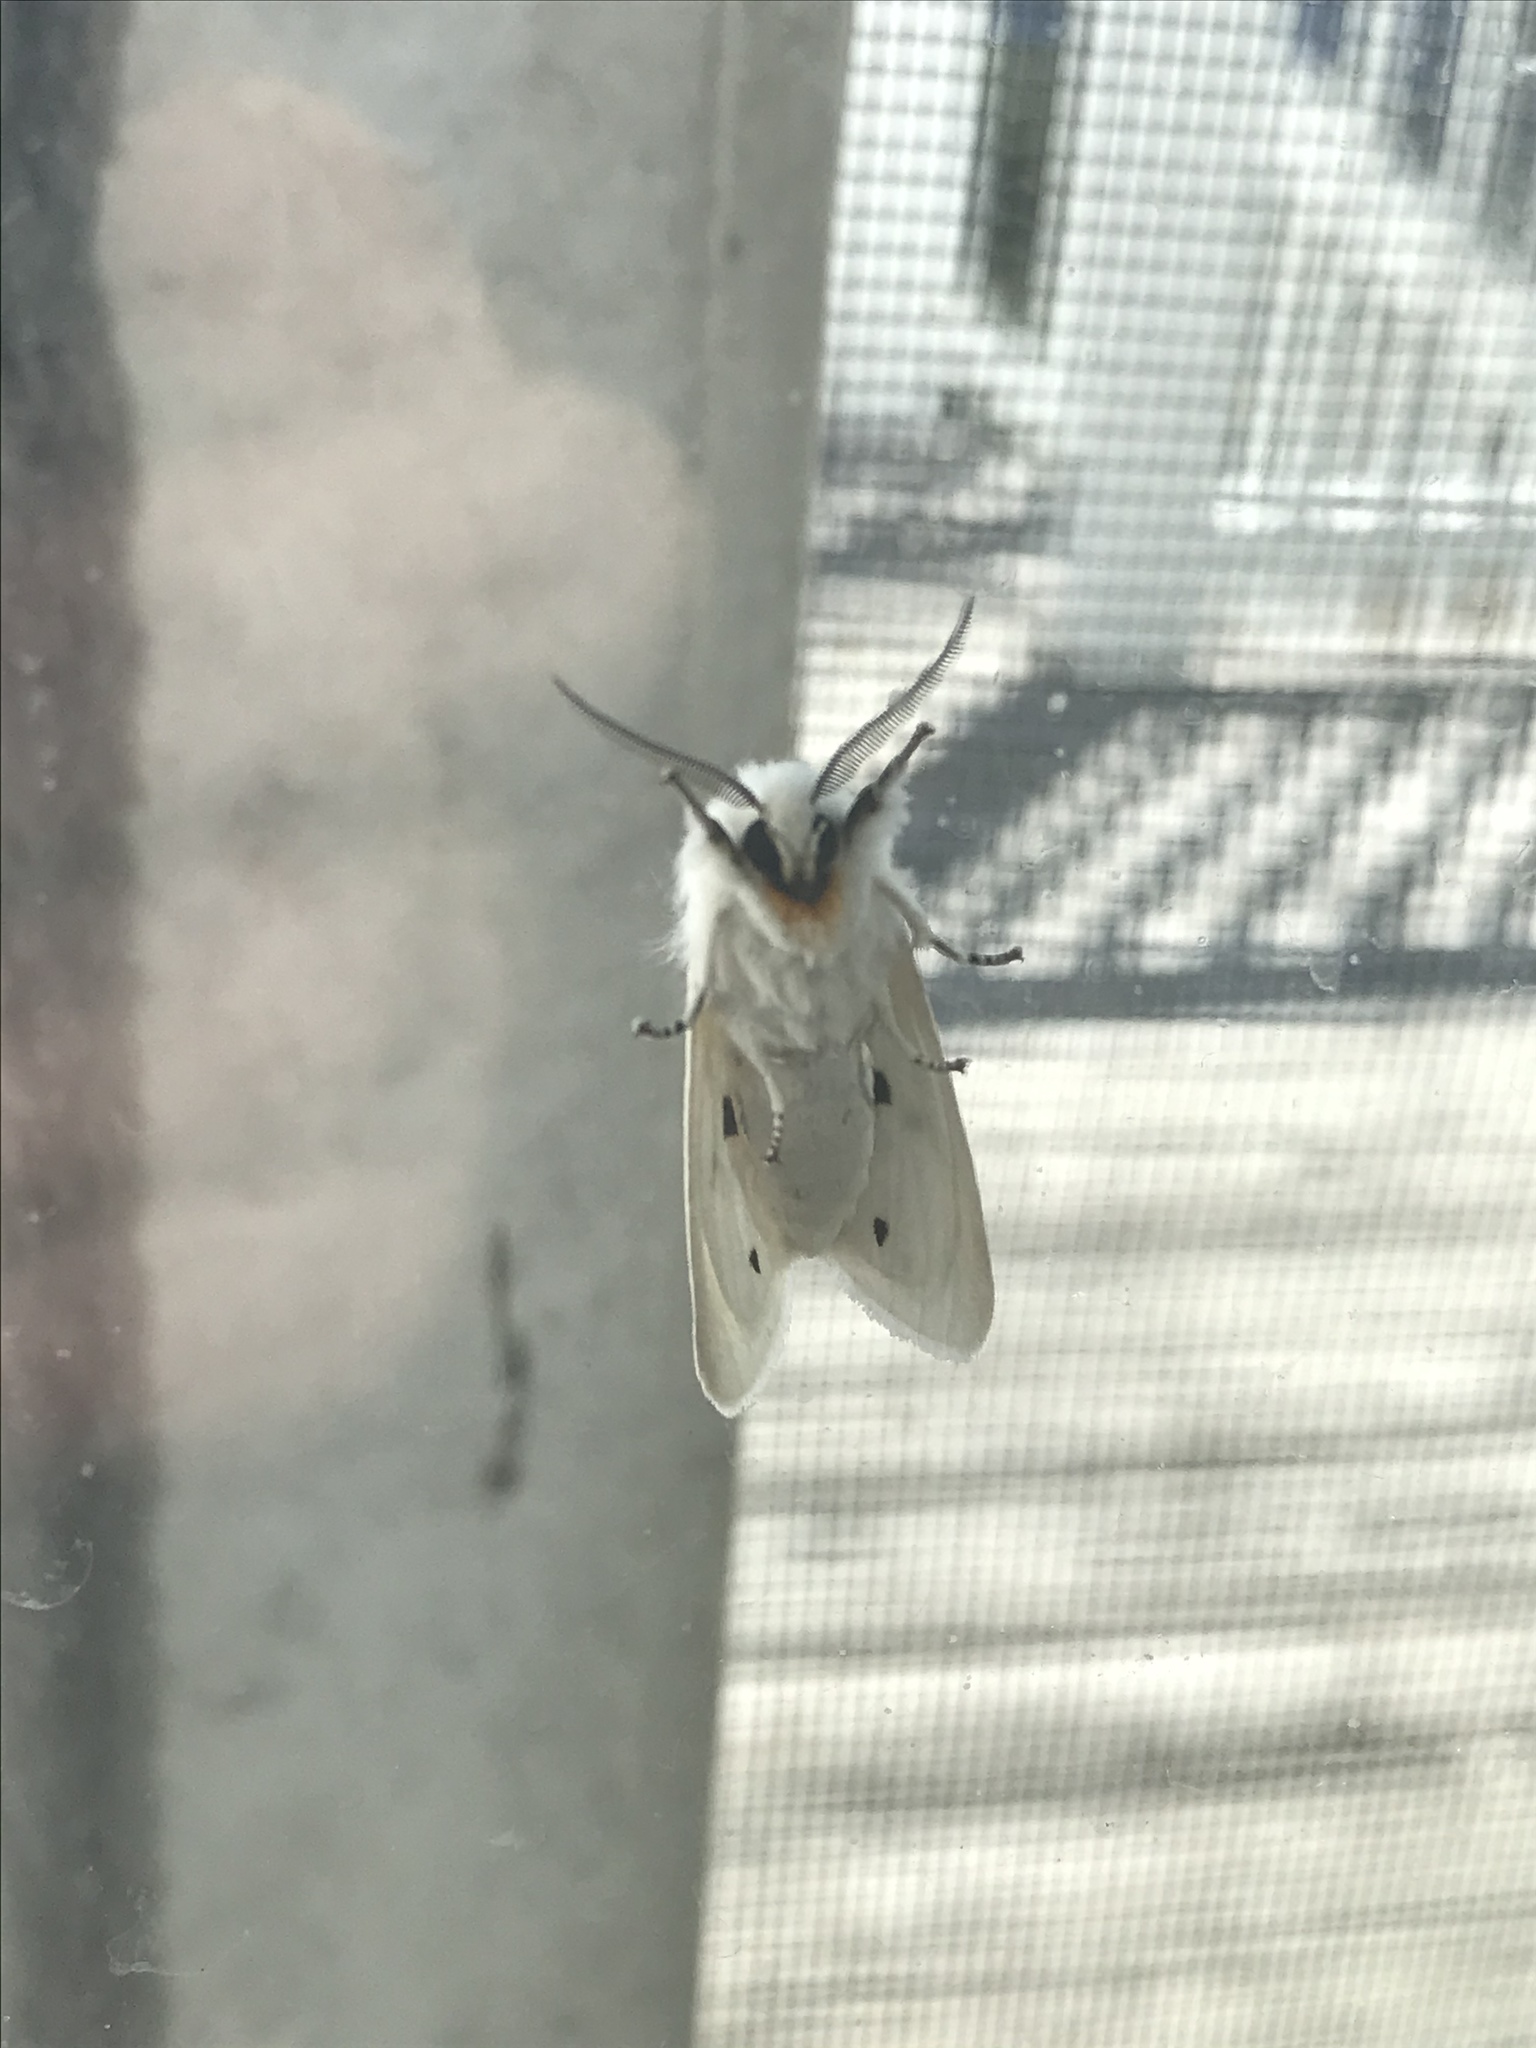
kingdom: Animalia
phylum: Arthropoda
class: Insecta
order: Lepidoptera
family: Erebidae
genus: Spilosoma
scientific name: Spilosoma virginica
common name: Virginia tiger moth
